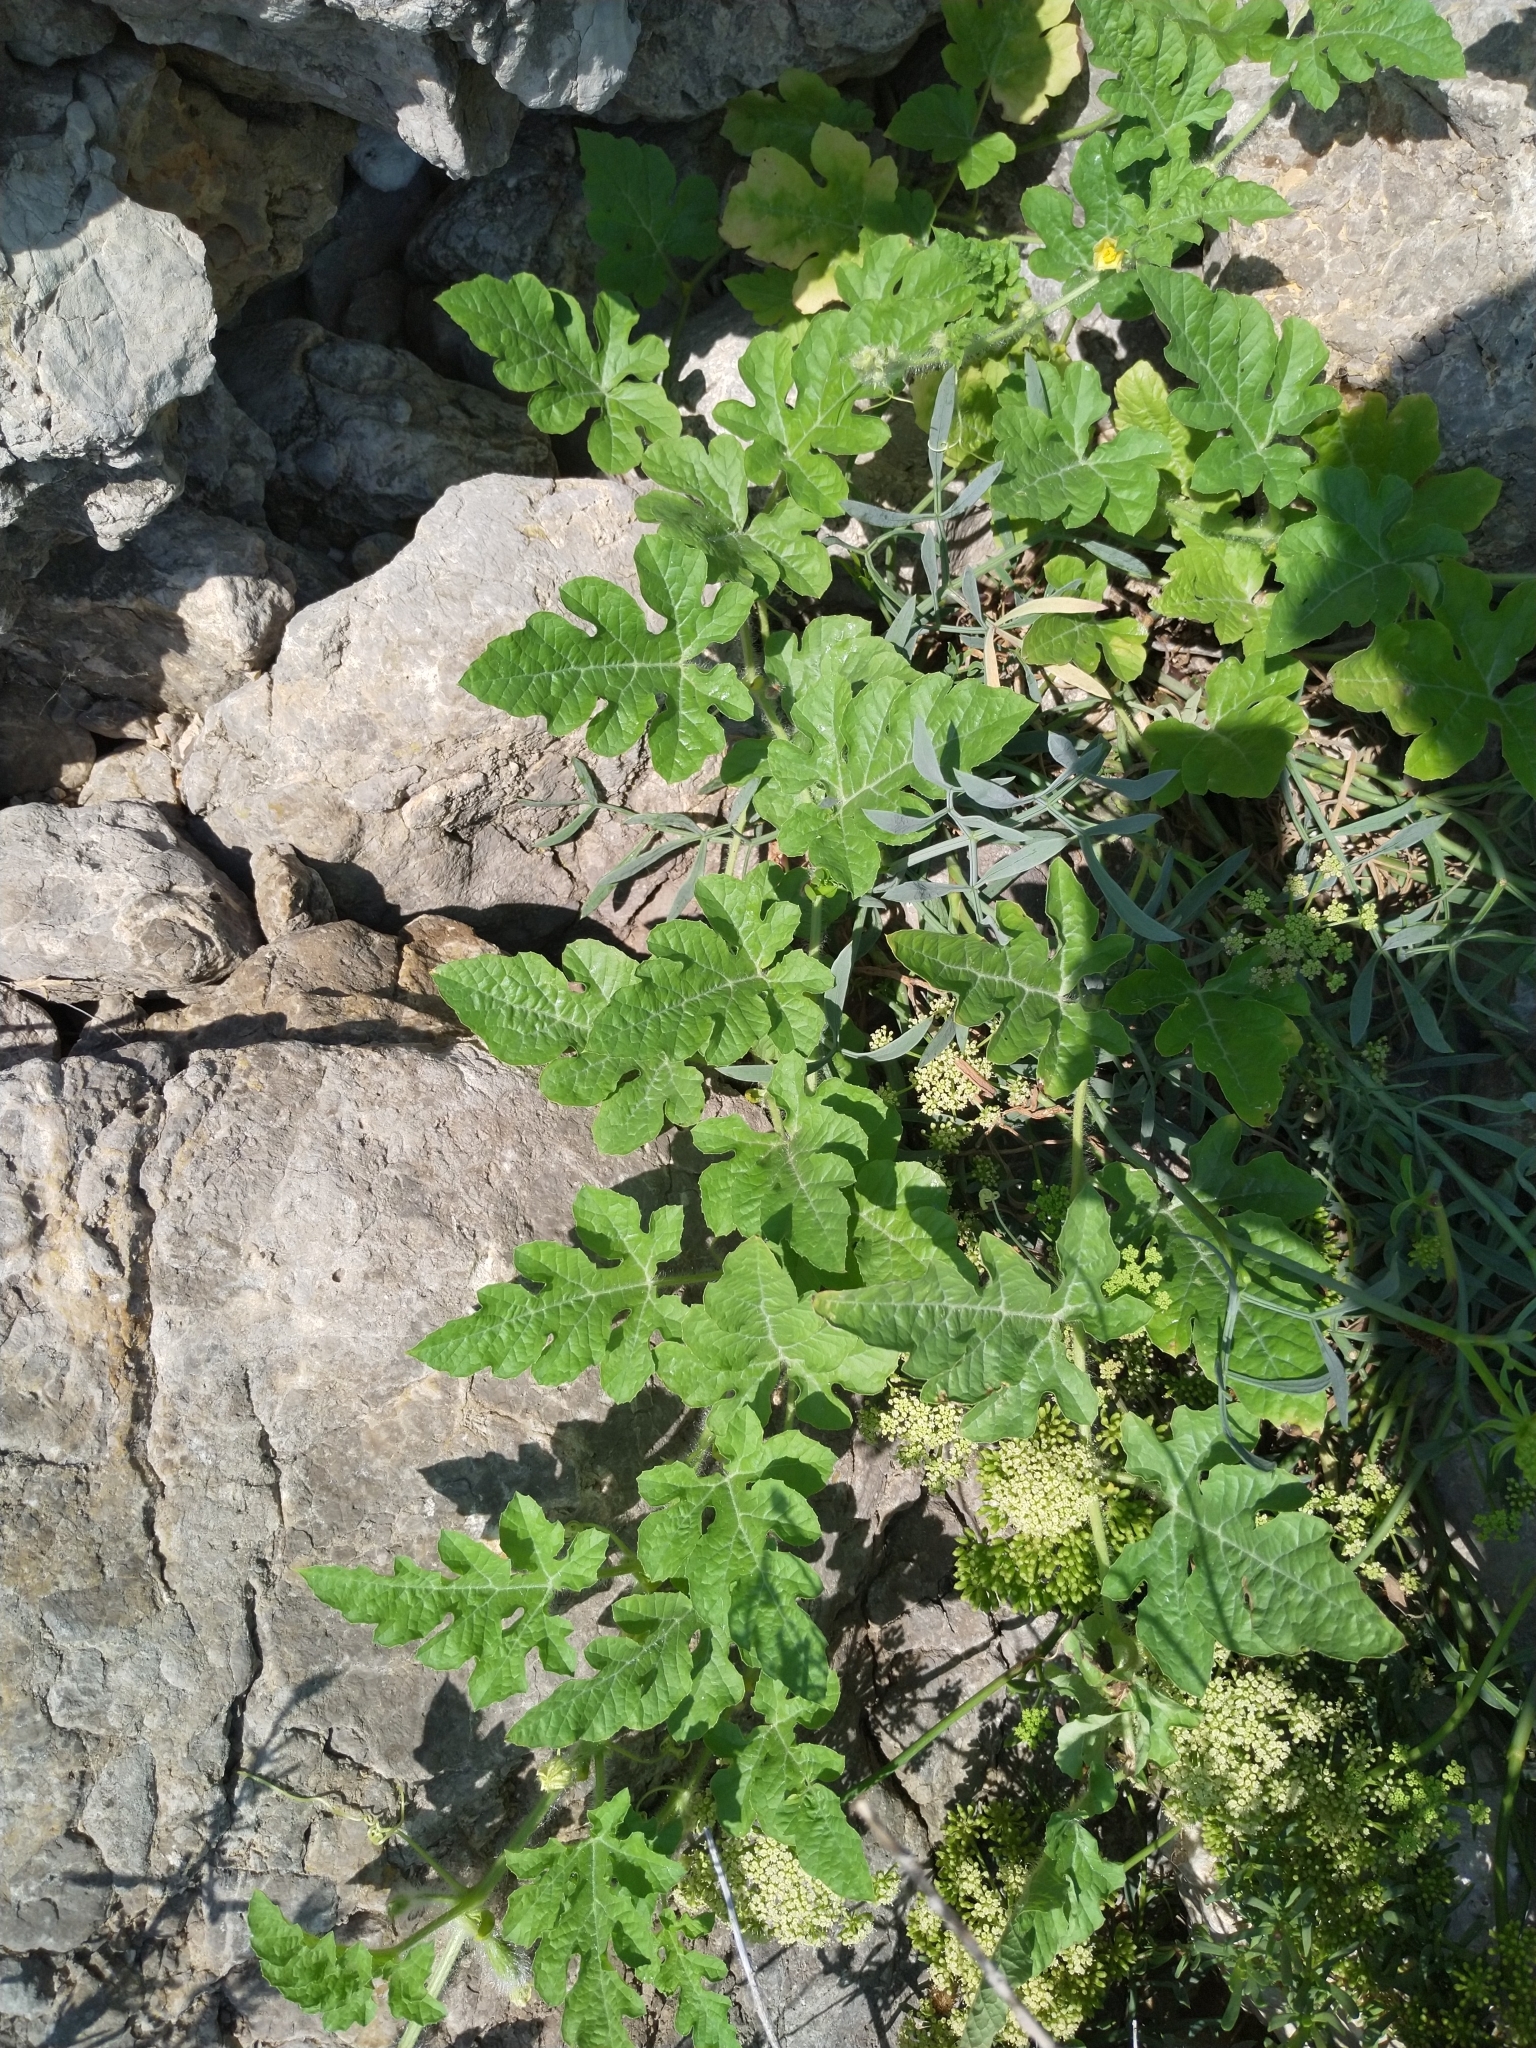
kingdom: Plantae
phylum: Tracheophyta
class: Magnoliopsida
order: Cucurbitales
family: Cucurbitaceae
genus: Citrullus
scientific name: Citrullus lanatus
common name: Watermelon
